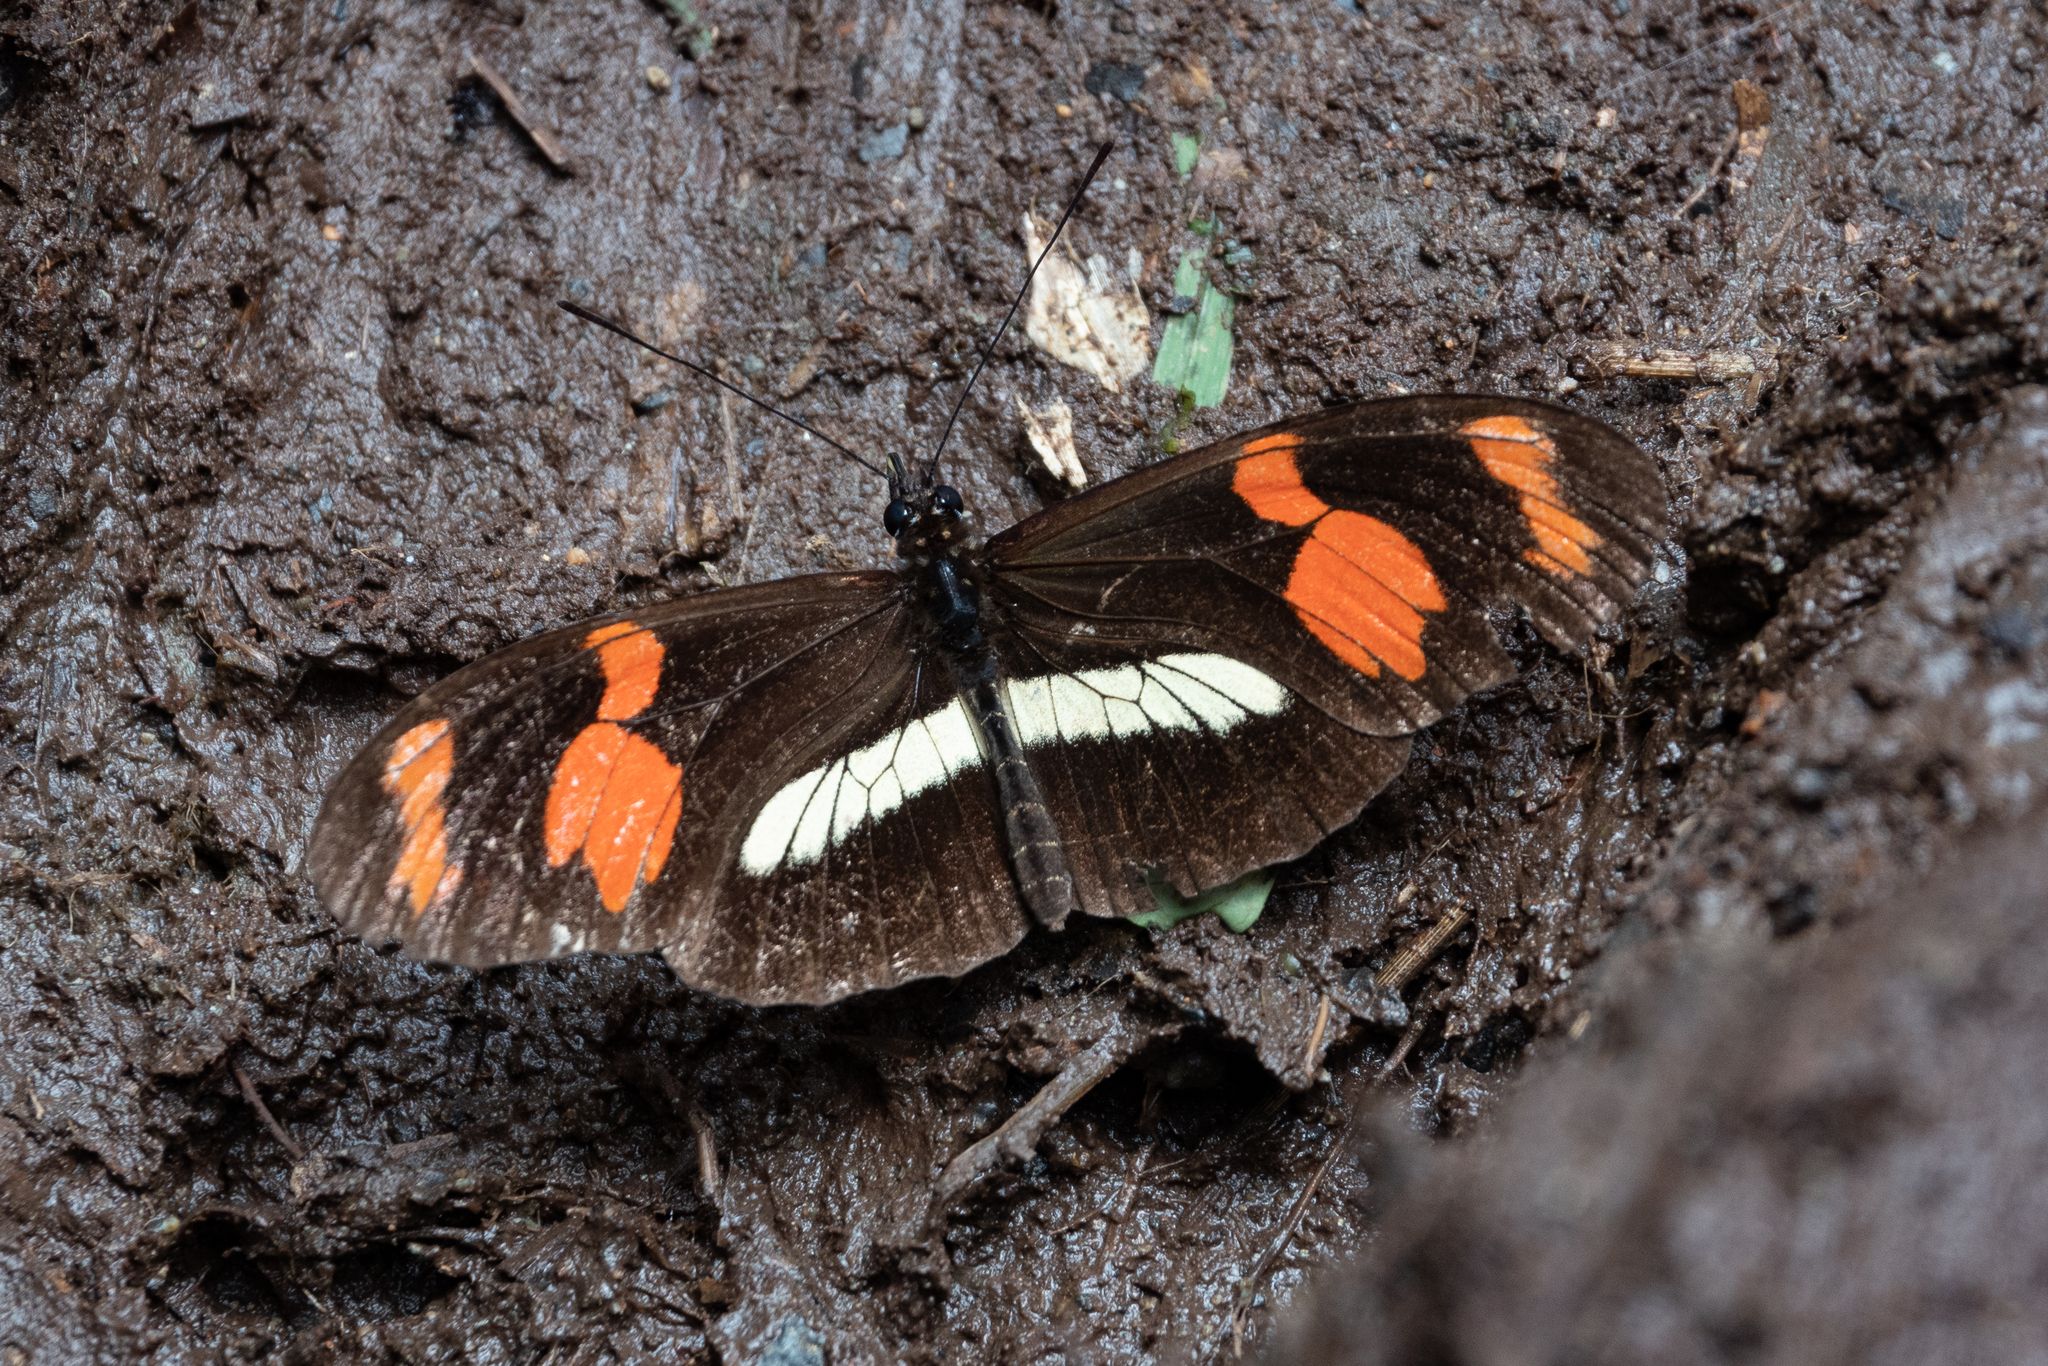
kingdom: Animalia
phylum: Arthropoda
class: Insecta
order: Lepidoptera
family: Nymphalidae
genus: Heliconius
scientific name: Heliconius telesiphe
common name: Telesiphe longwing
